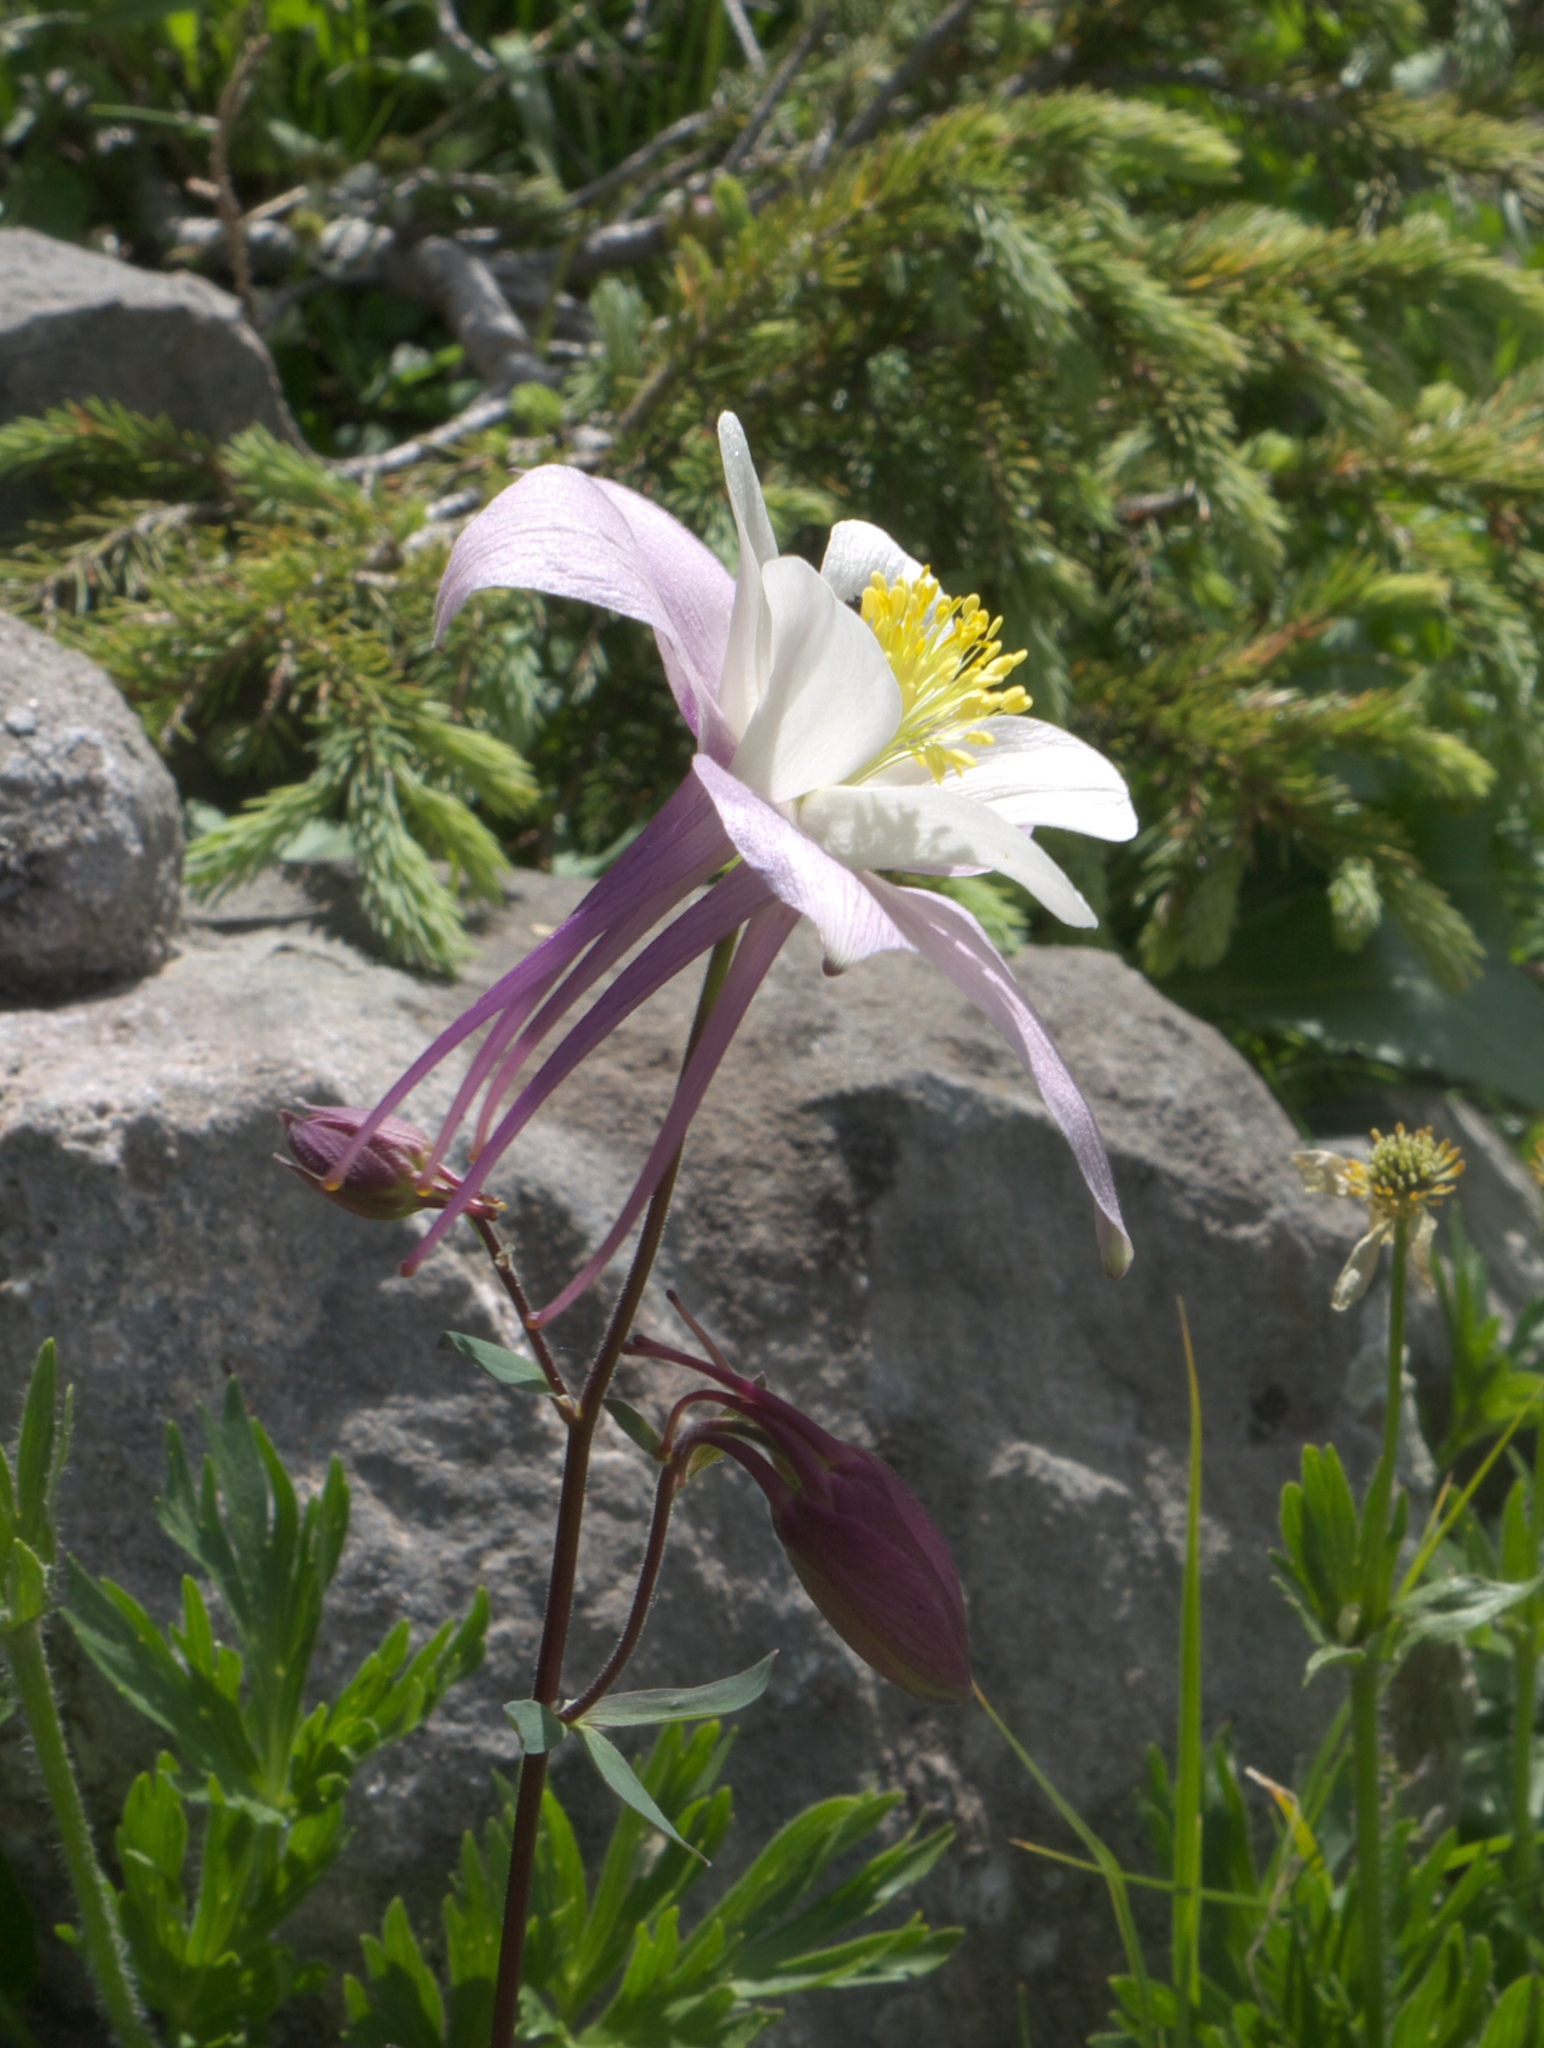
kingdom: Plantae
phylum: Tracheophyta
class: Magnoliopsida
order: Ranunculales
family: Ranunculaceae
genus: Aquilegia
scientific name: Aquilegia coerulea
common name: Rocky mountain columbine
